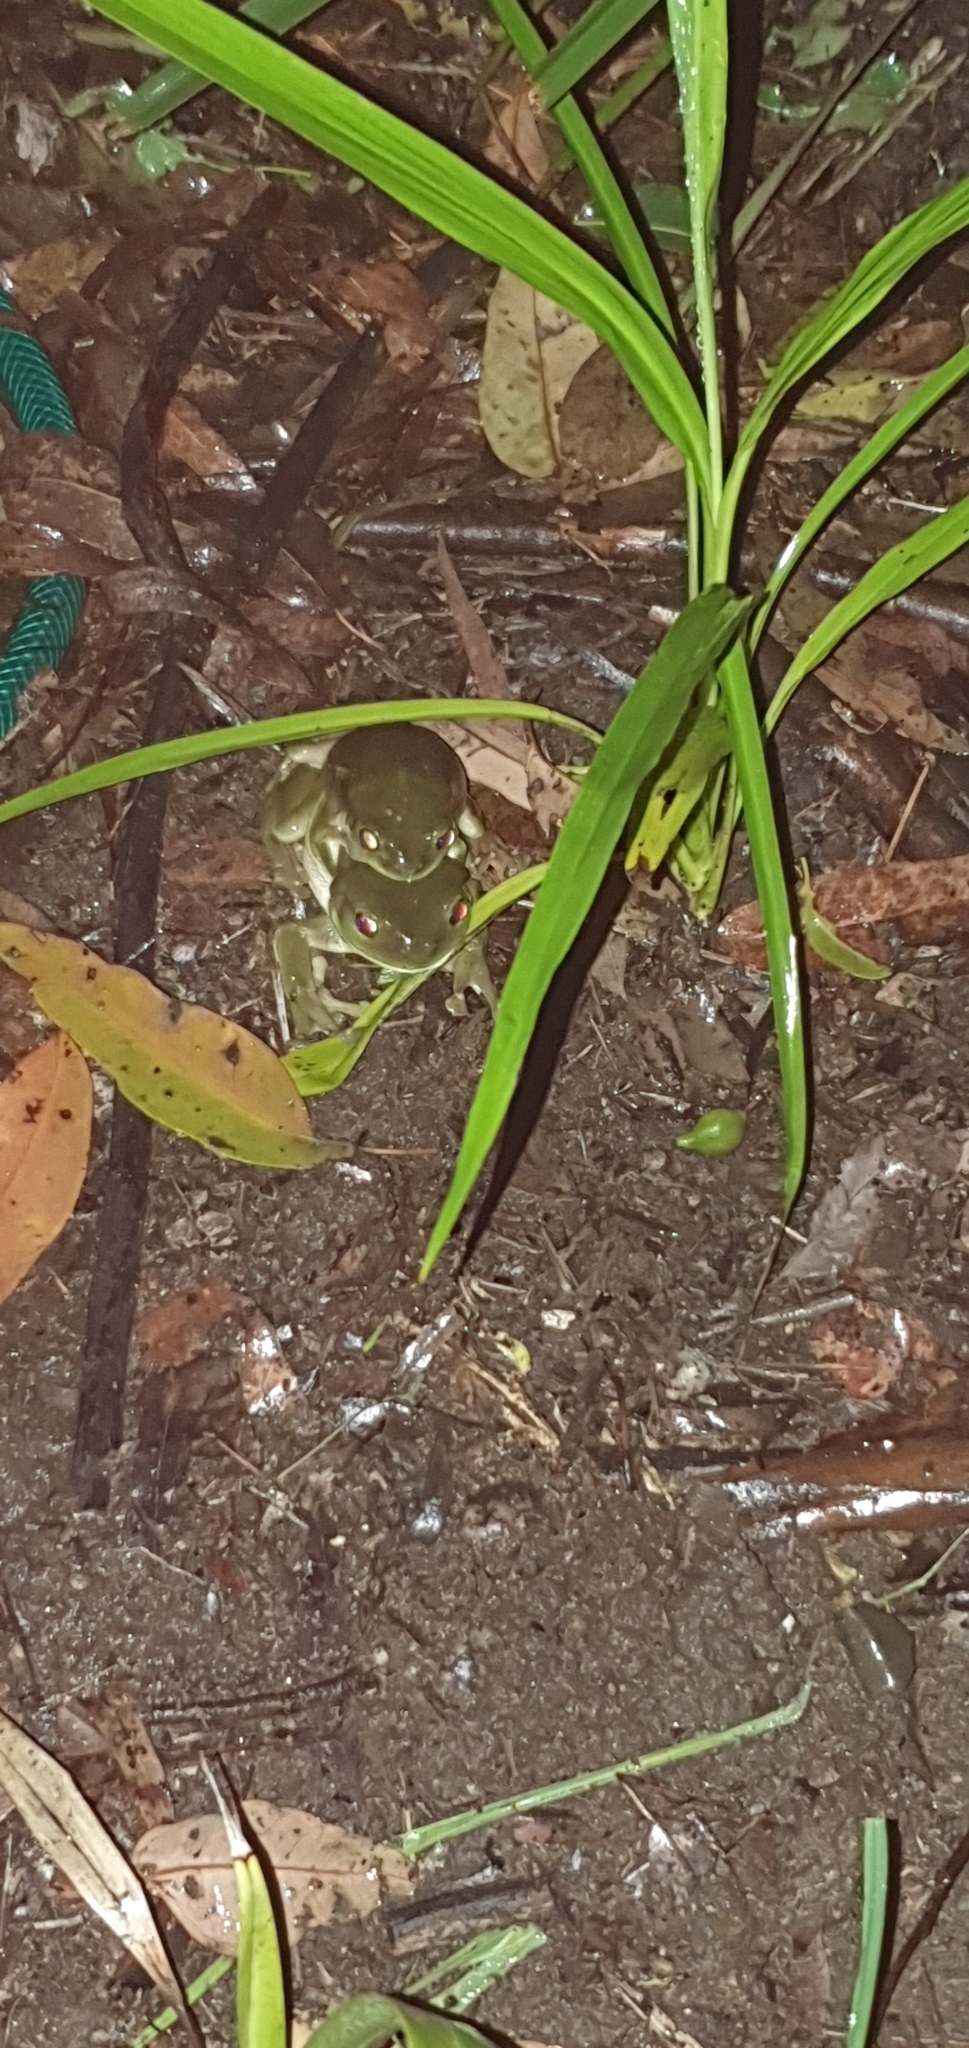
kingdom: Animalia
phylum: Chordata
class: Amphibia
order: Anura
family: Pelodryadidae
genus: Ranoidea
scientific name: Ranoidea caerulea
